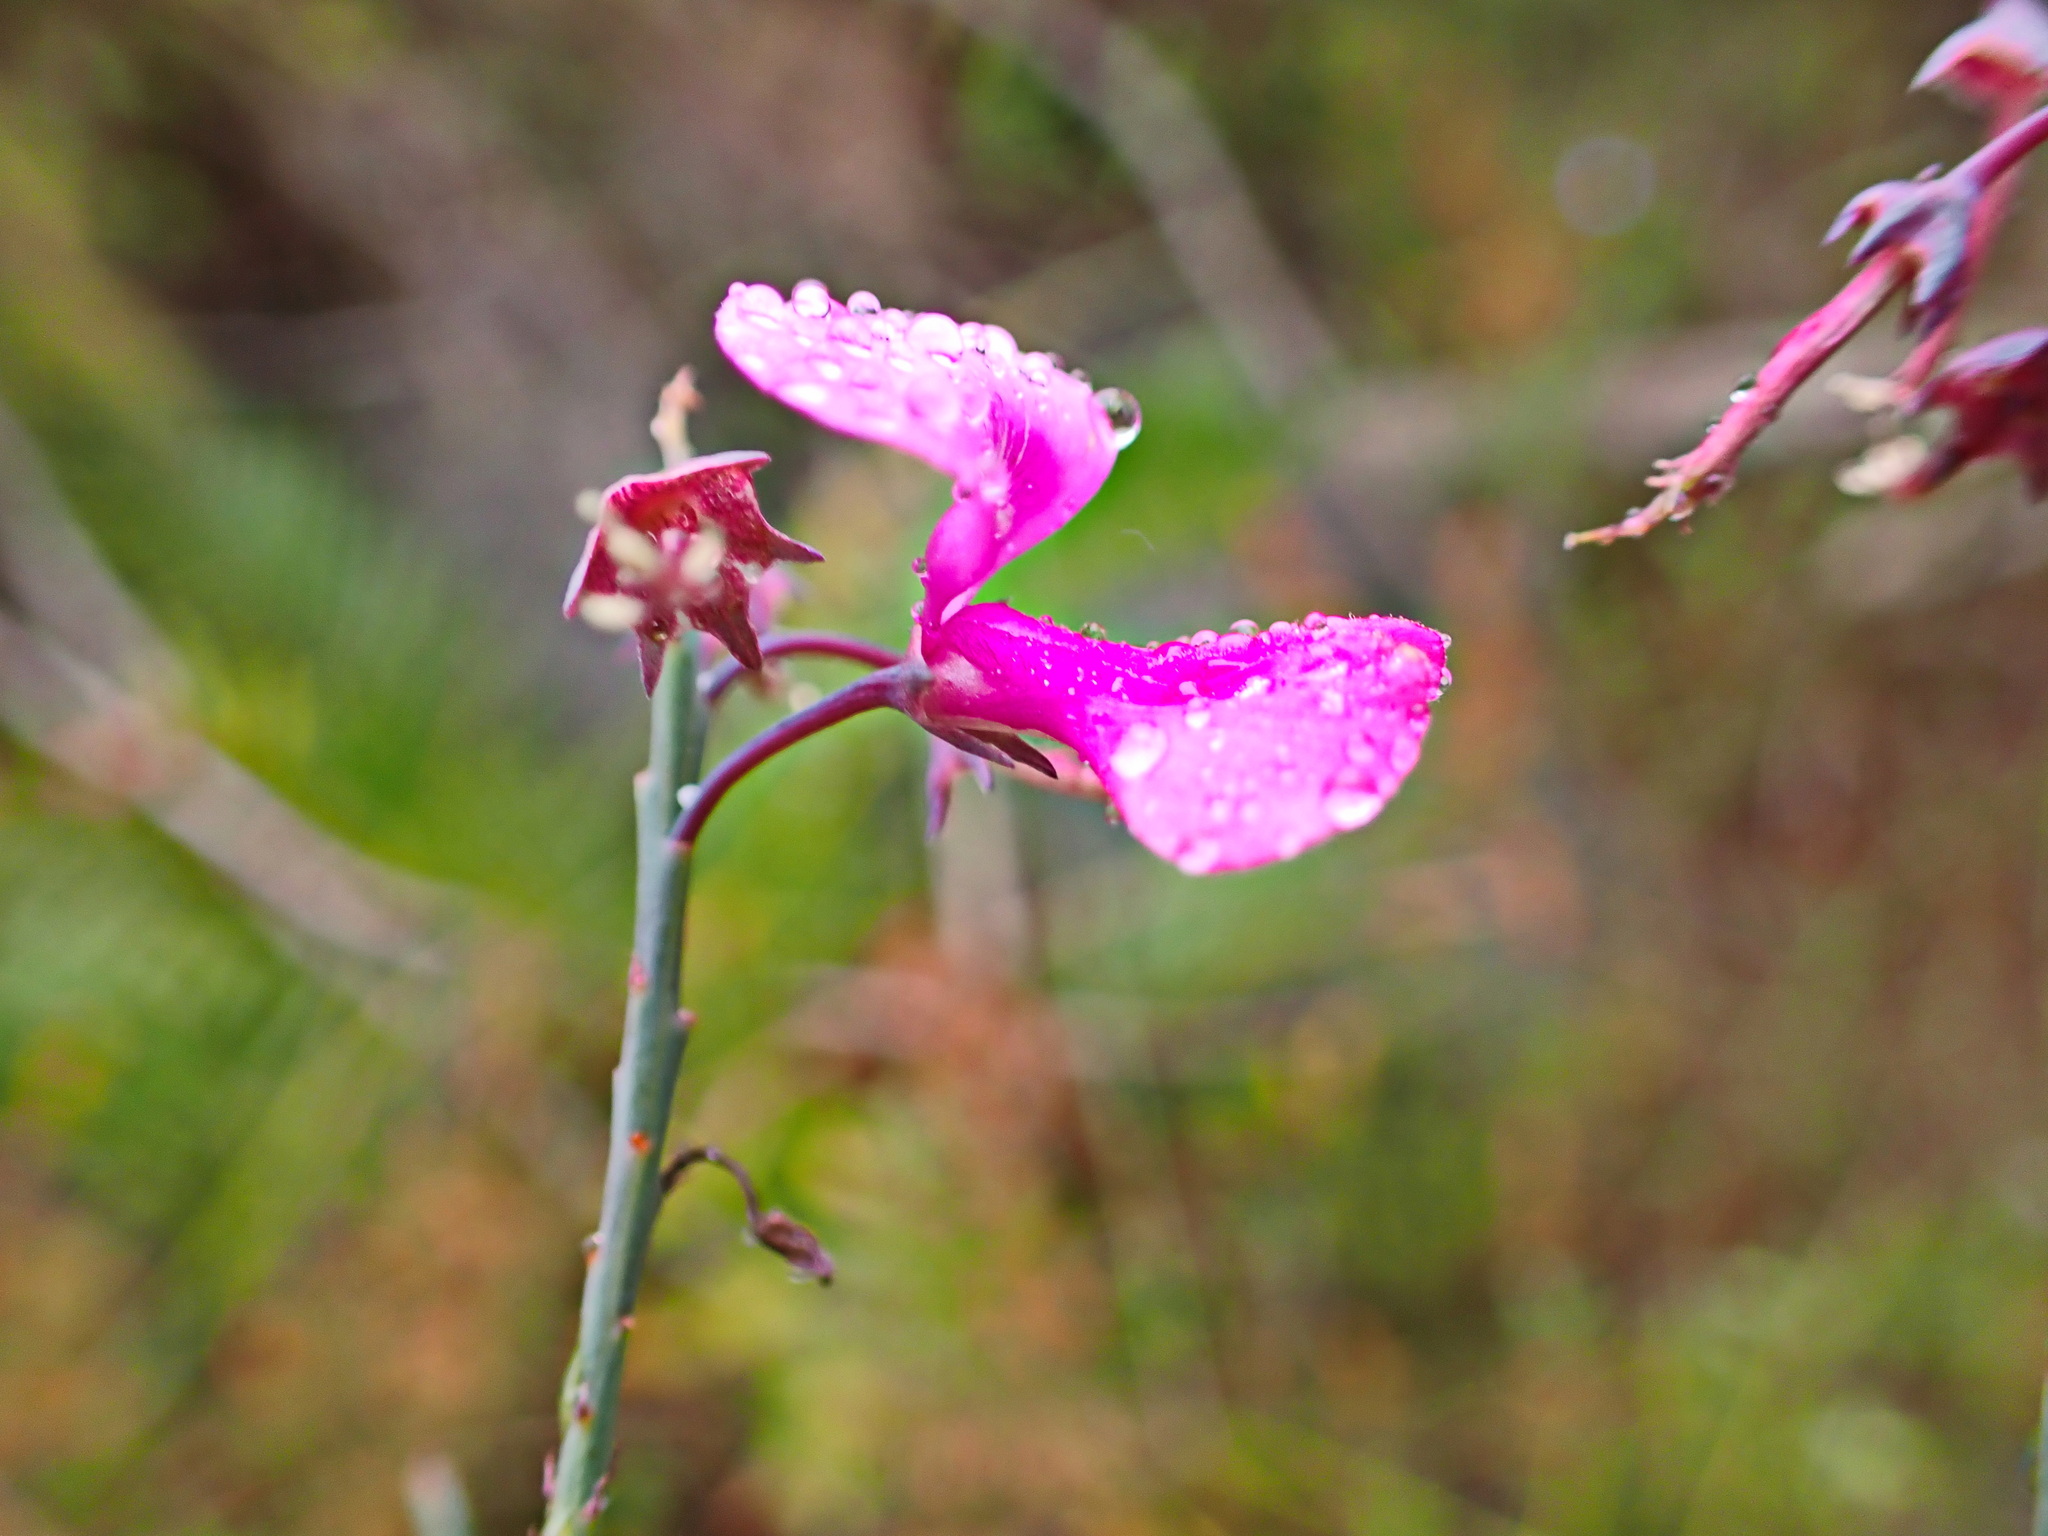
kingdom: Plantae
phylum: Tracheophyta
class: Magnoliopsida
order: Fabales
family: Fabaceae
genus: Indigofera
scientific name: Indigofera filifolia
